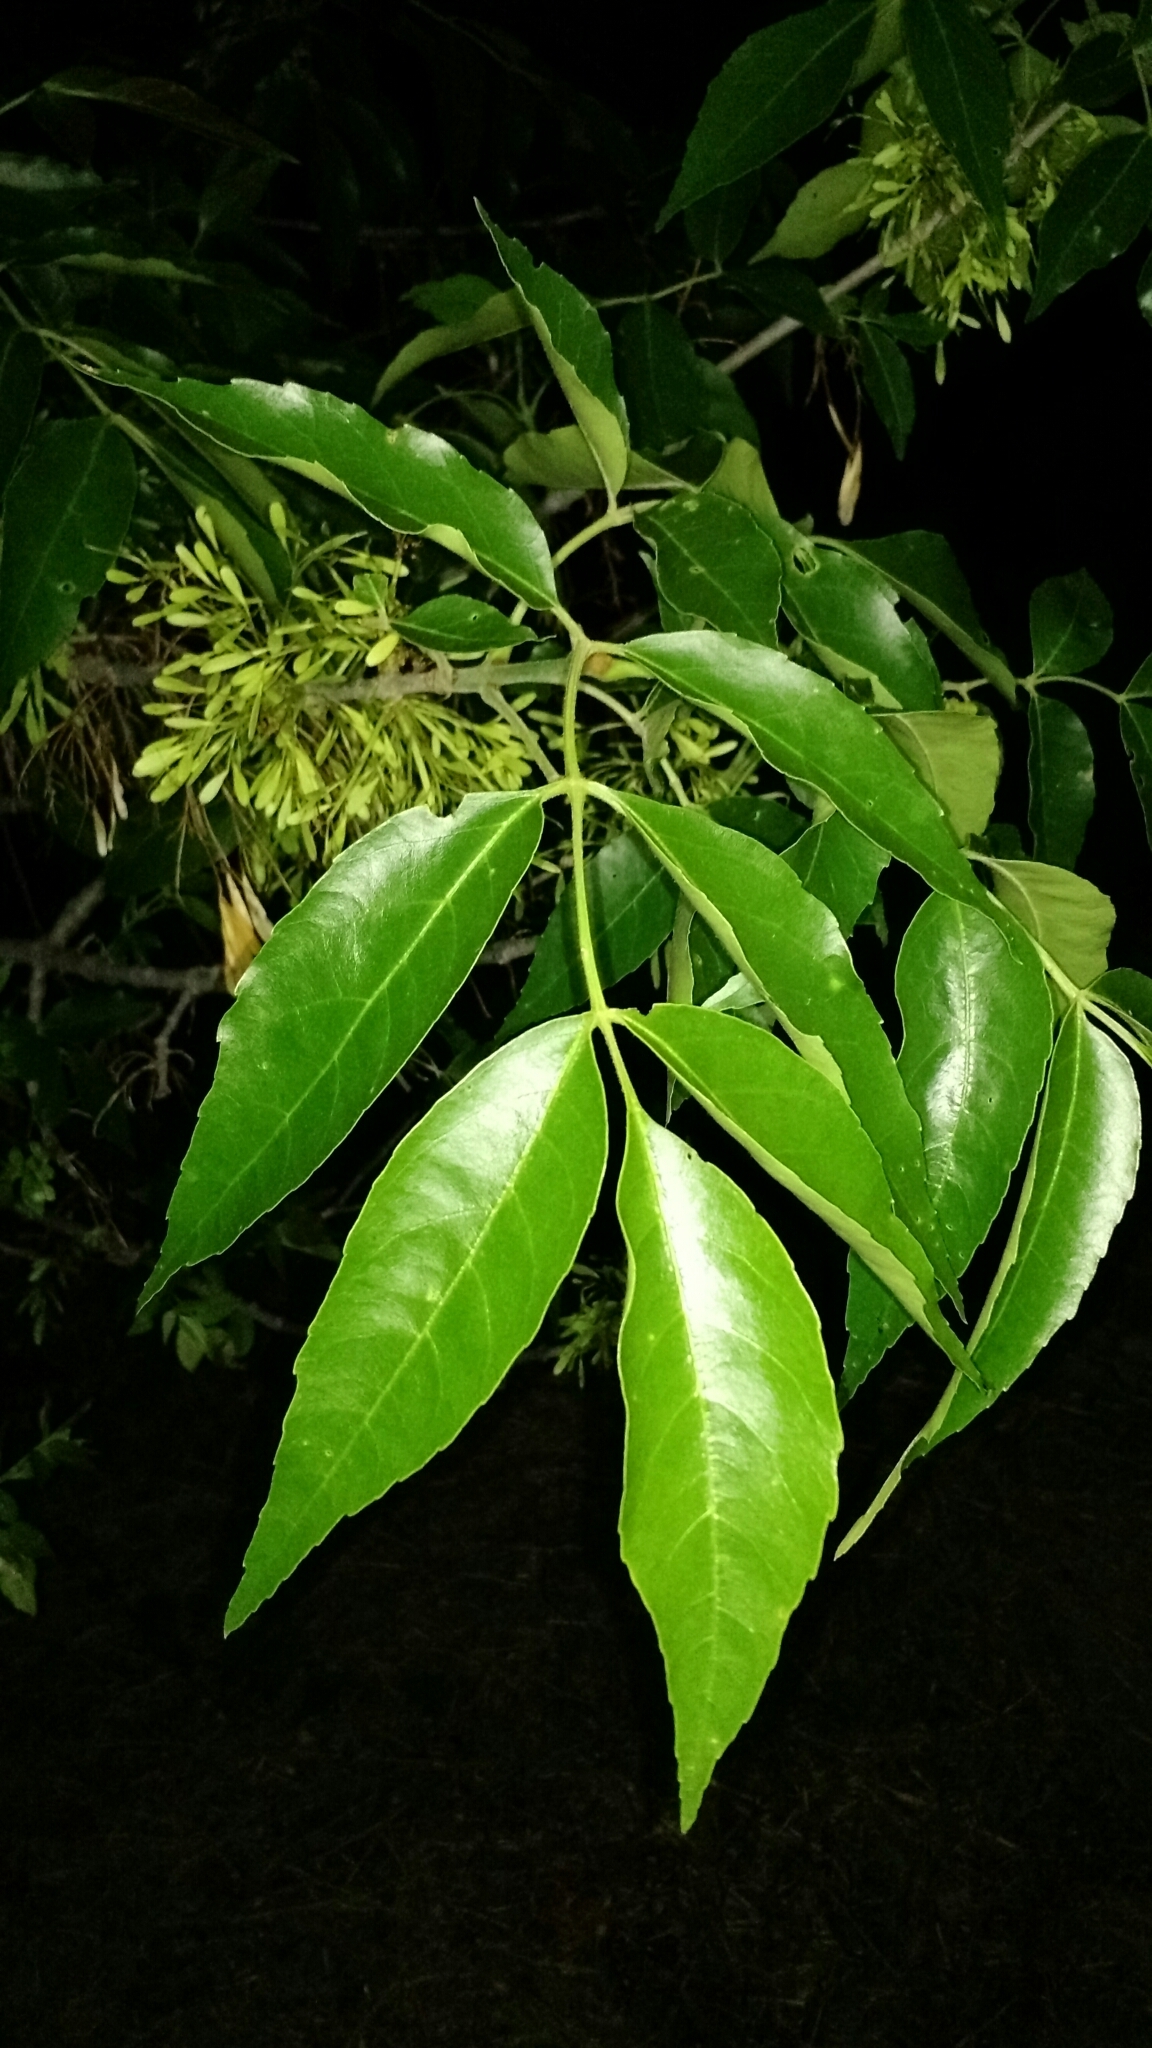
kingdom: Plantae
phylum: Tracheophyta
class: Magnoliopsida
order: Lamiales
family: Oleaceae
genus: Fraxinus
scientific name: Fraxinus pennsylvanica
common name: Green ash
